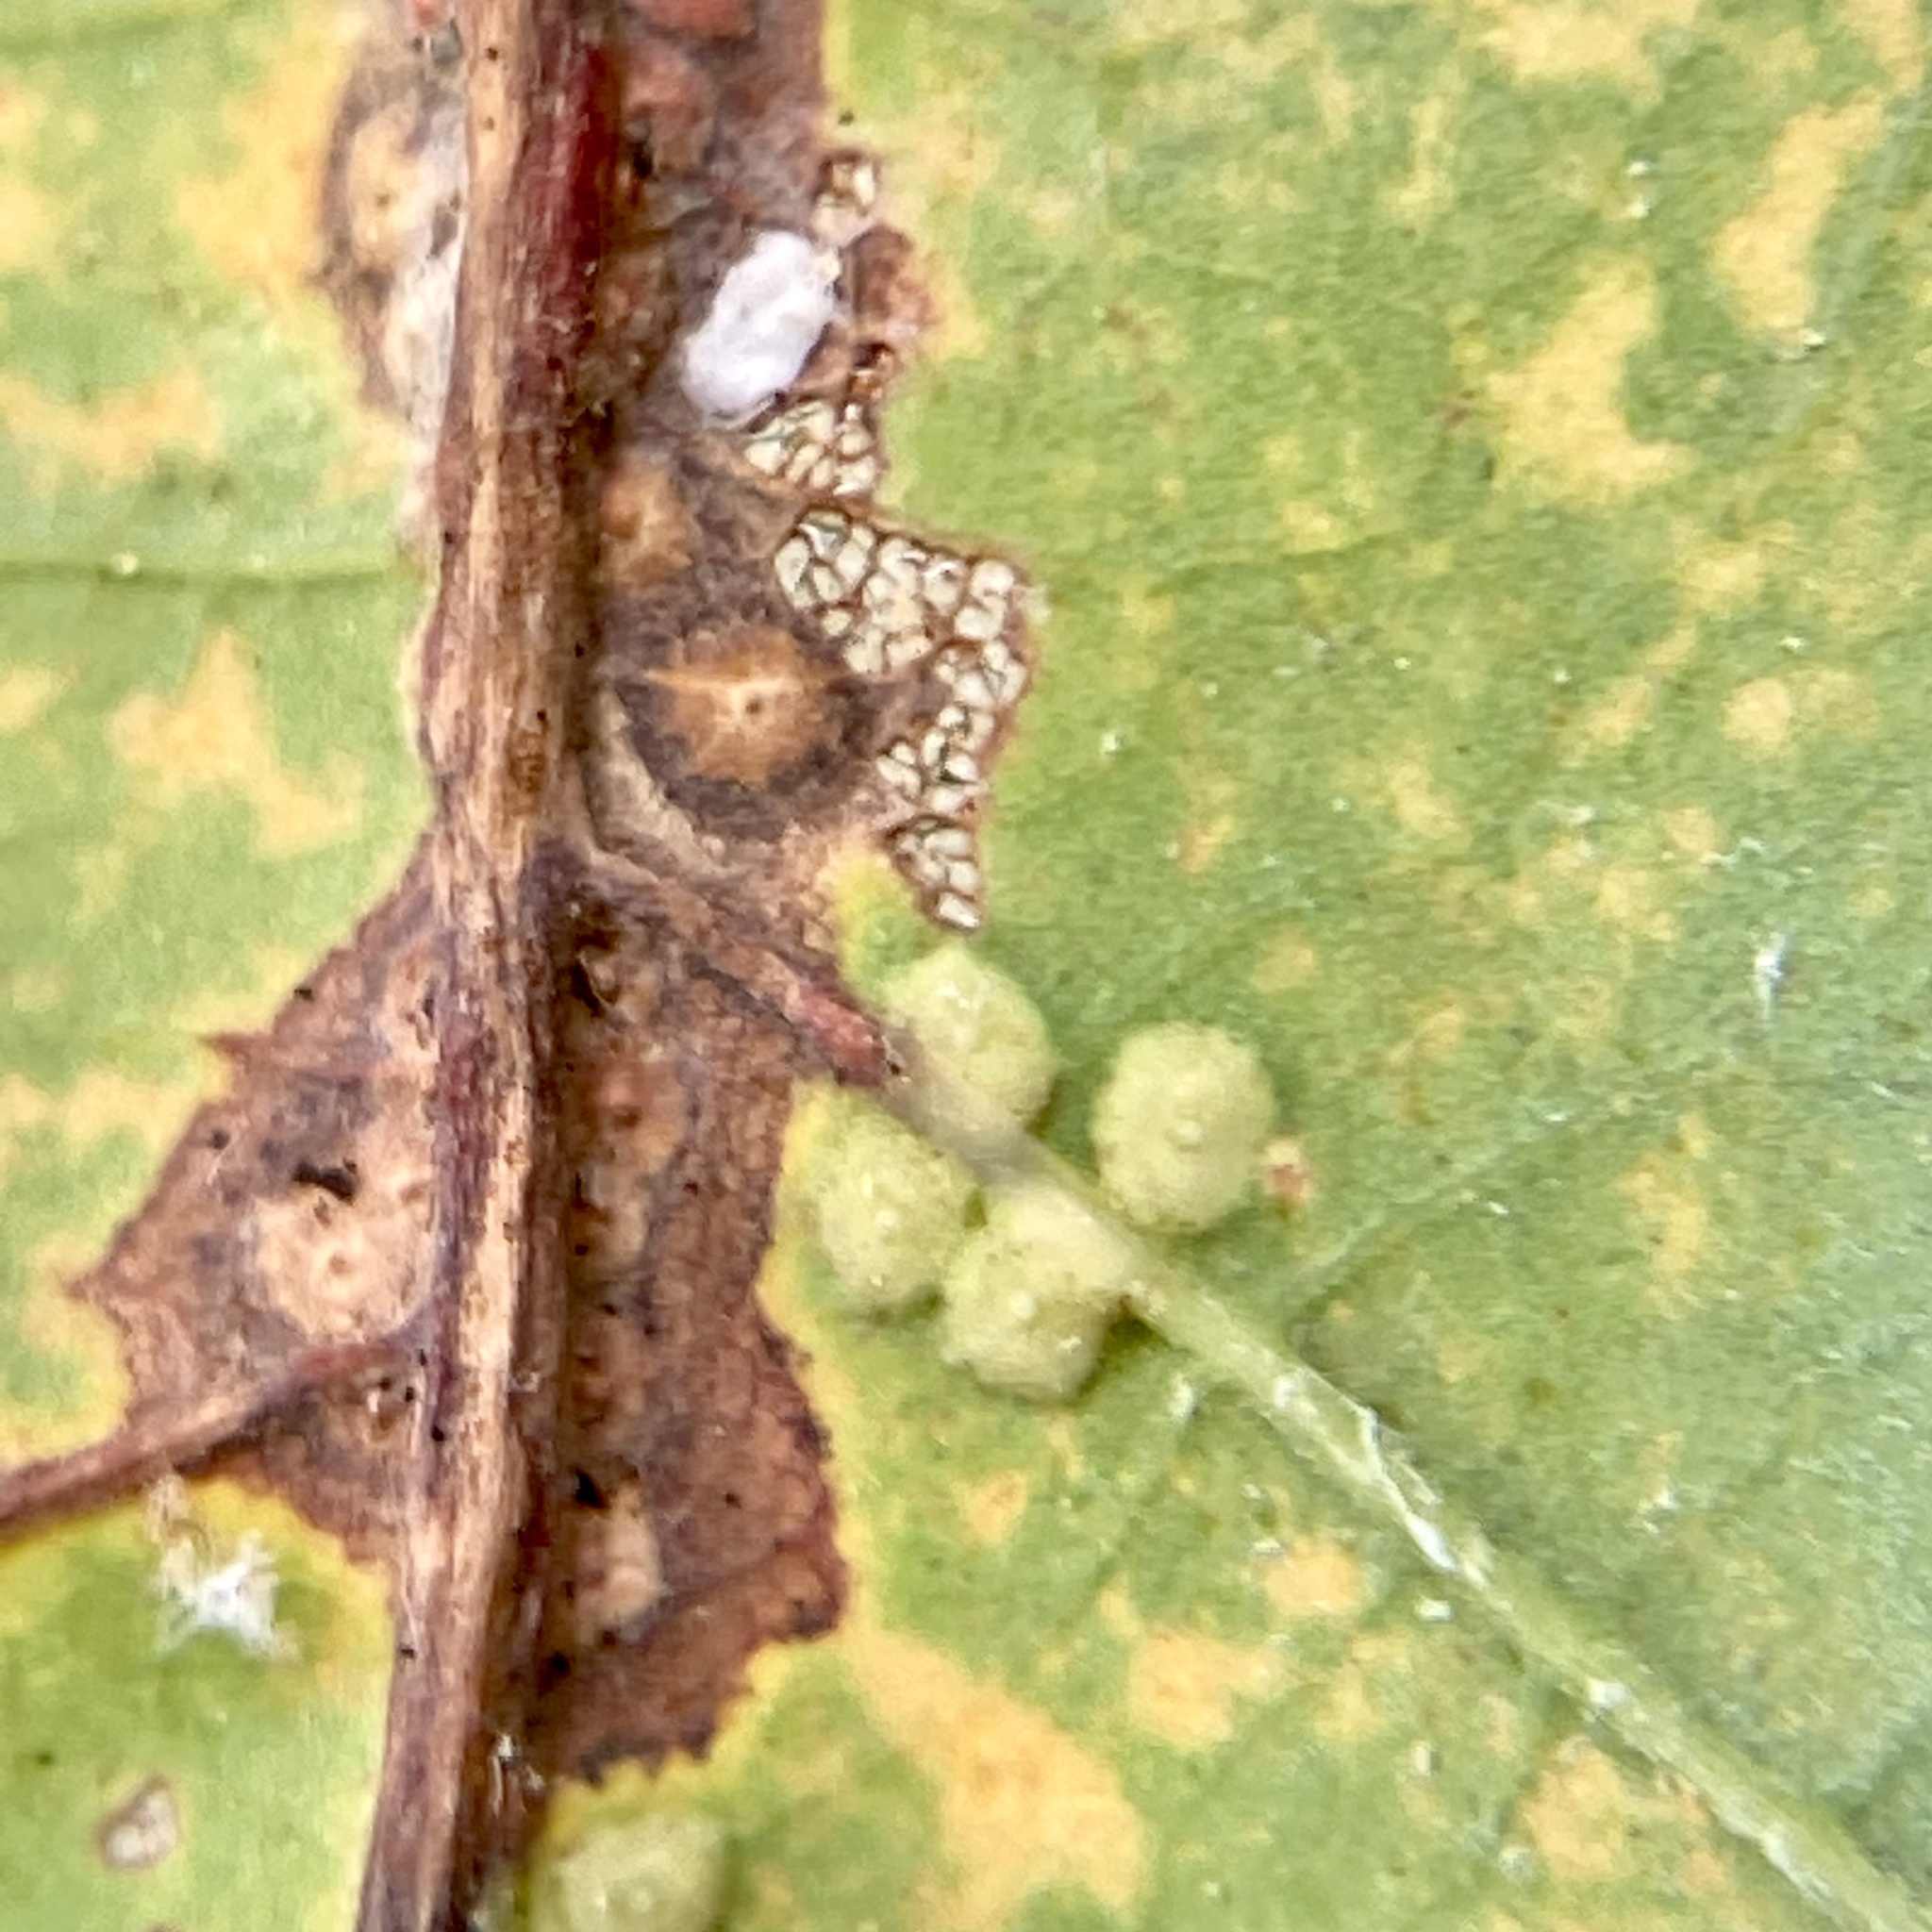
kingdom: Animalia
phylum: Arthropoda
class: Insecta
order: Hymenoptera
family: Cynipidae
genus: Neuroterus
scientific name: Neuroterus niger
